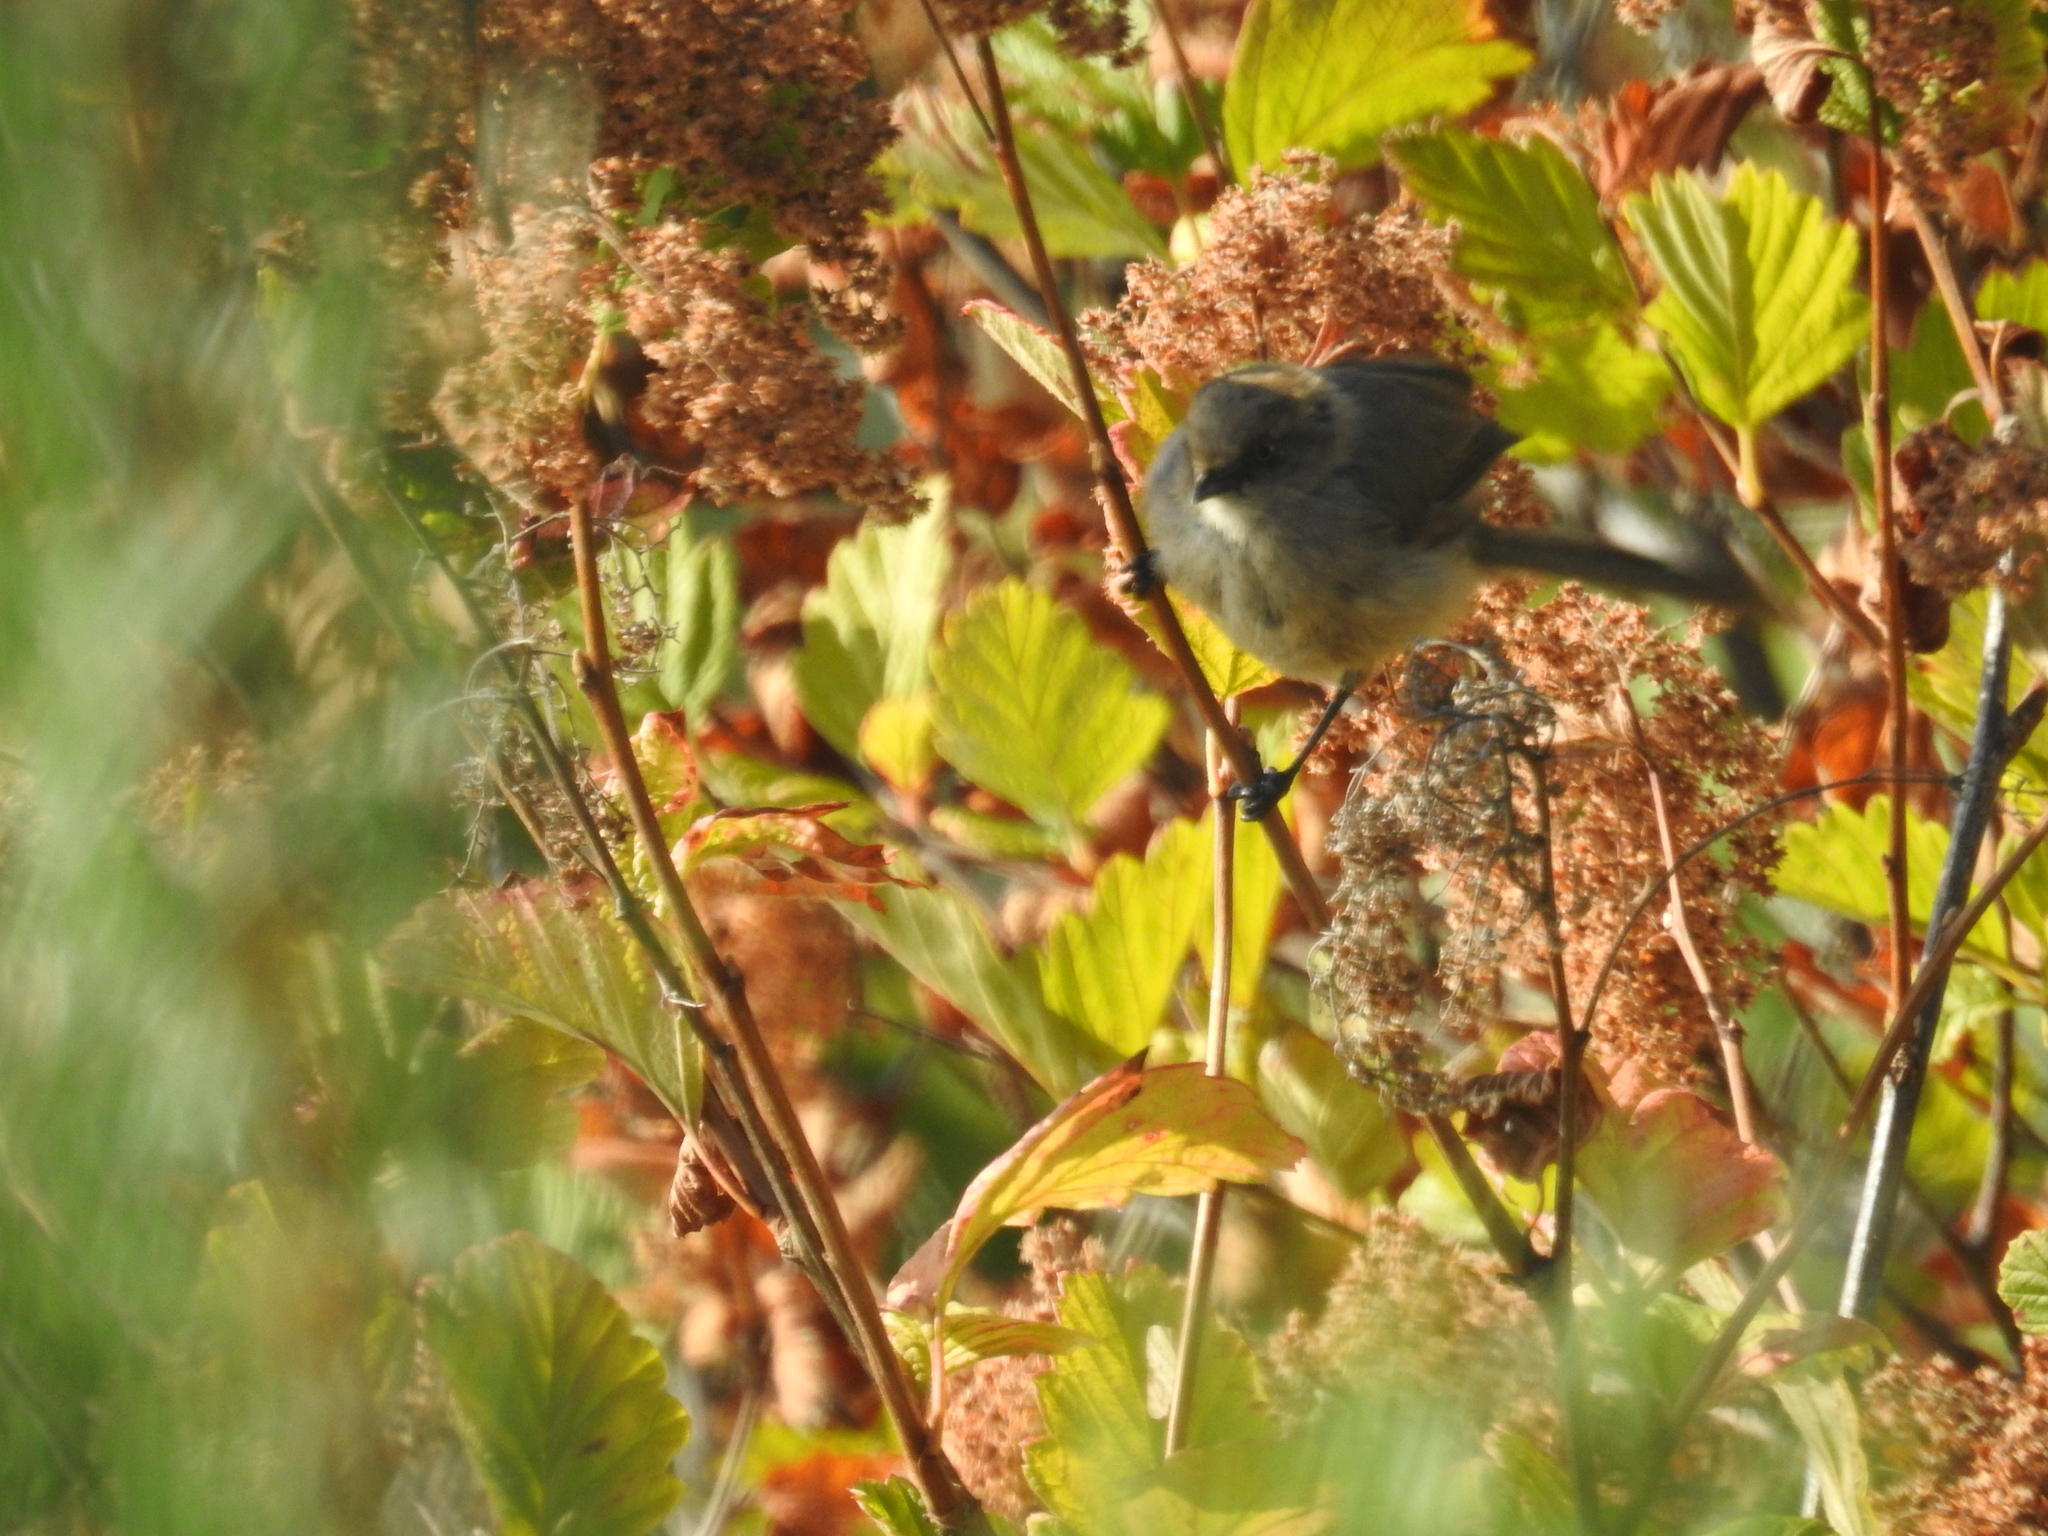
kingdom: Animalia
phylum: Chordata
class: Aves
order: Passeriformes
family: Aegithalidae
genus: Psaltriparus
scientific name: Psaltriparus minimus
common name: American bushtit
